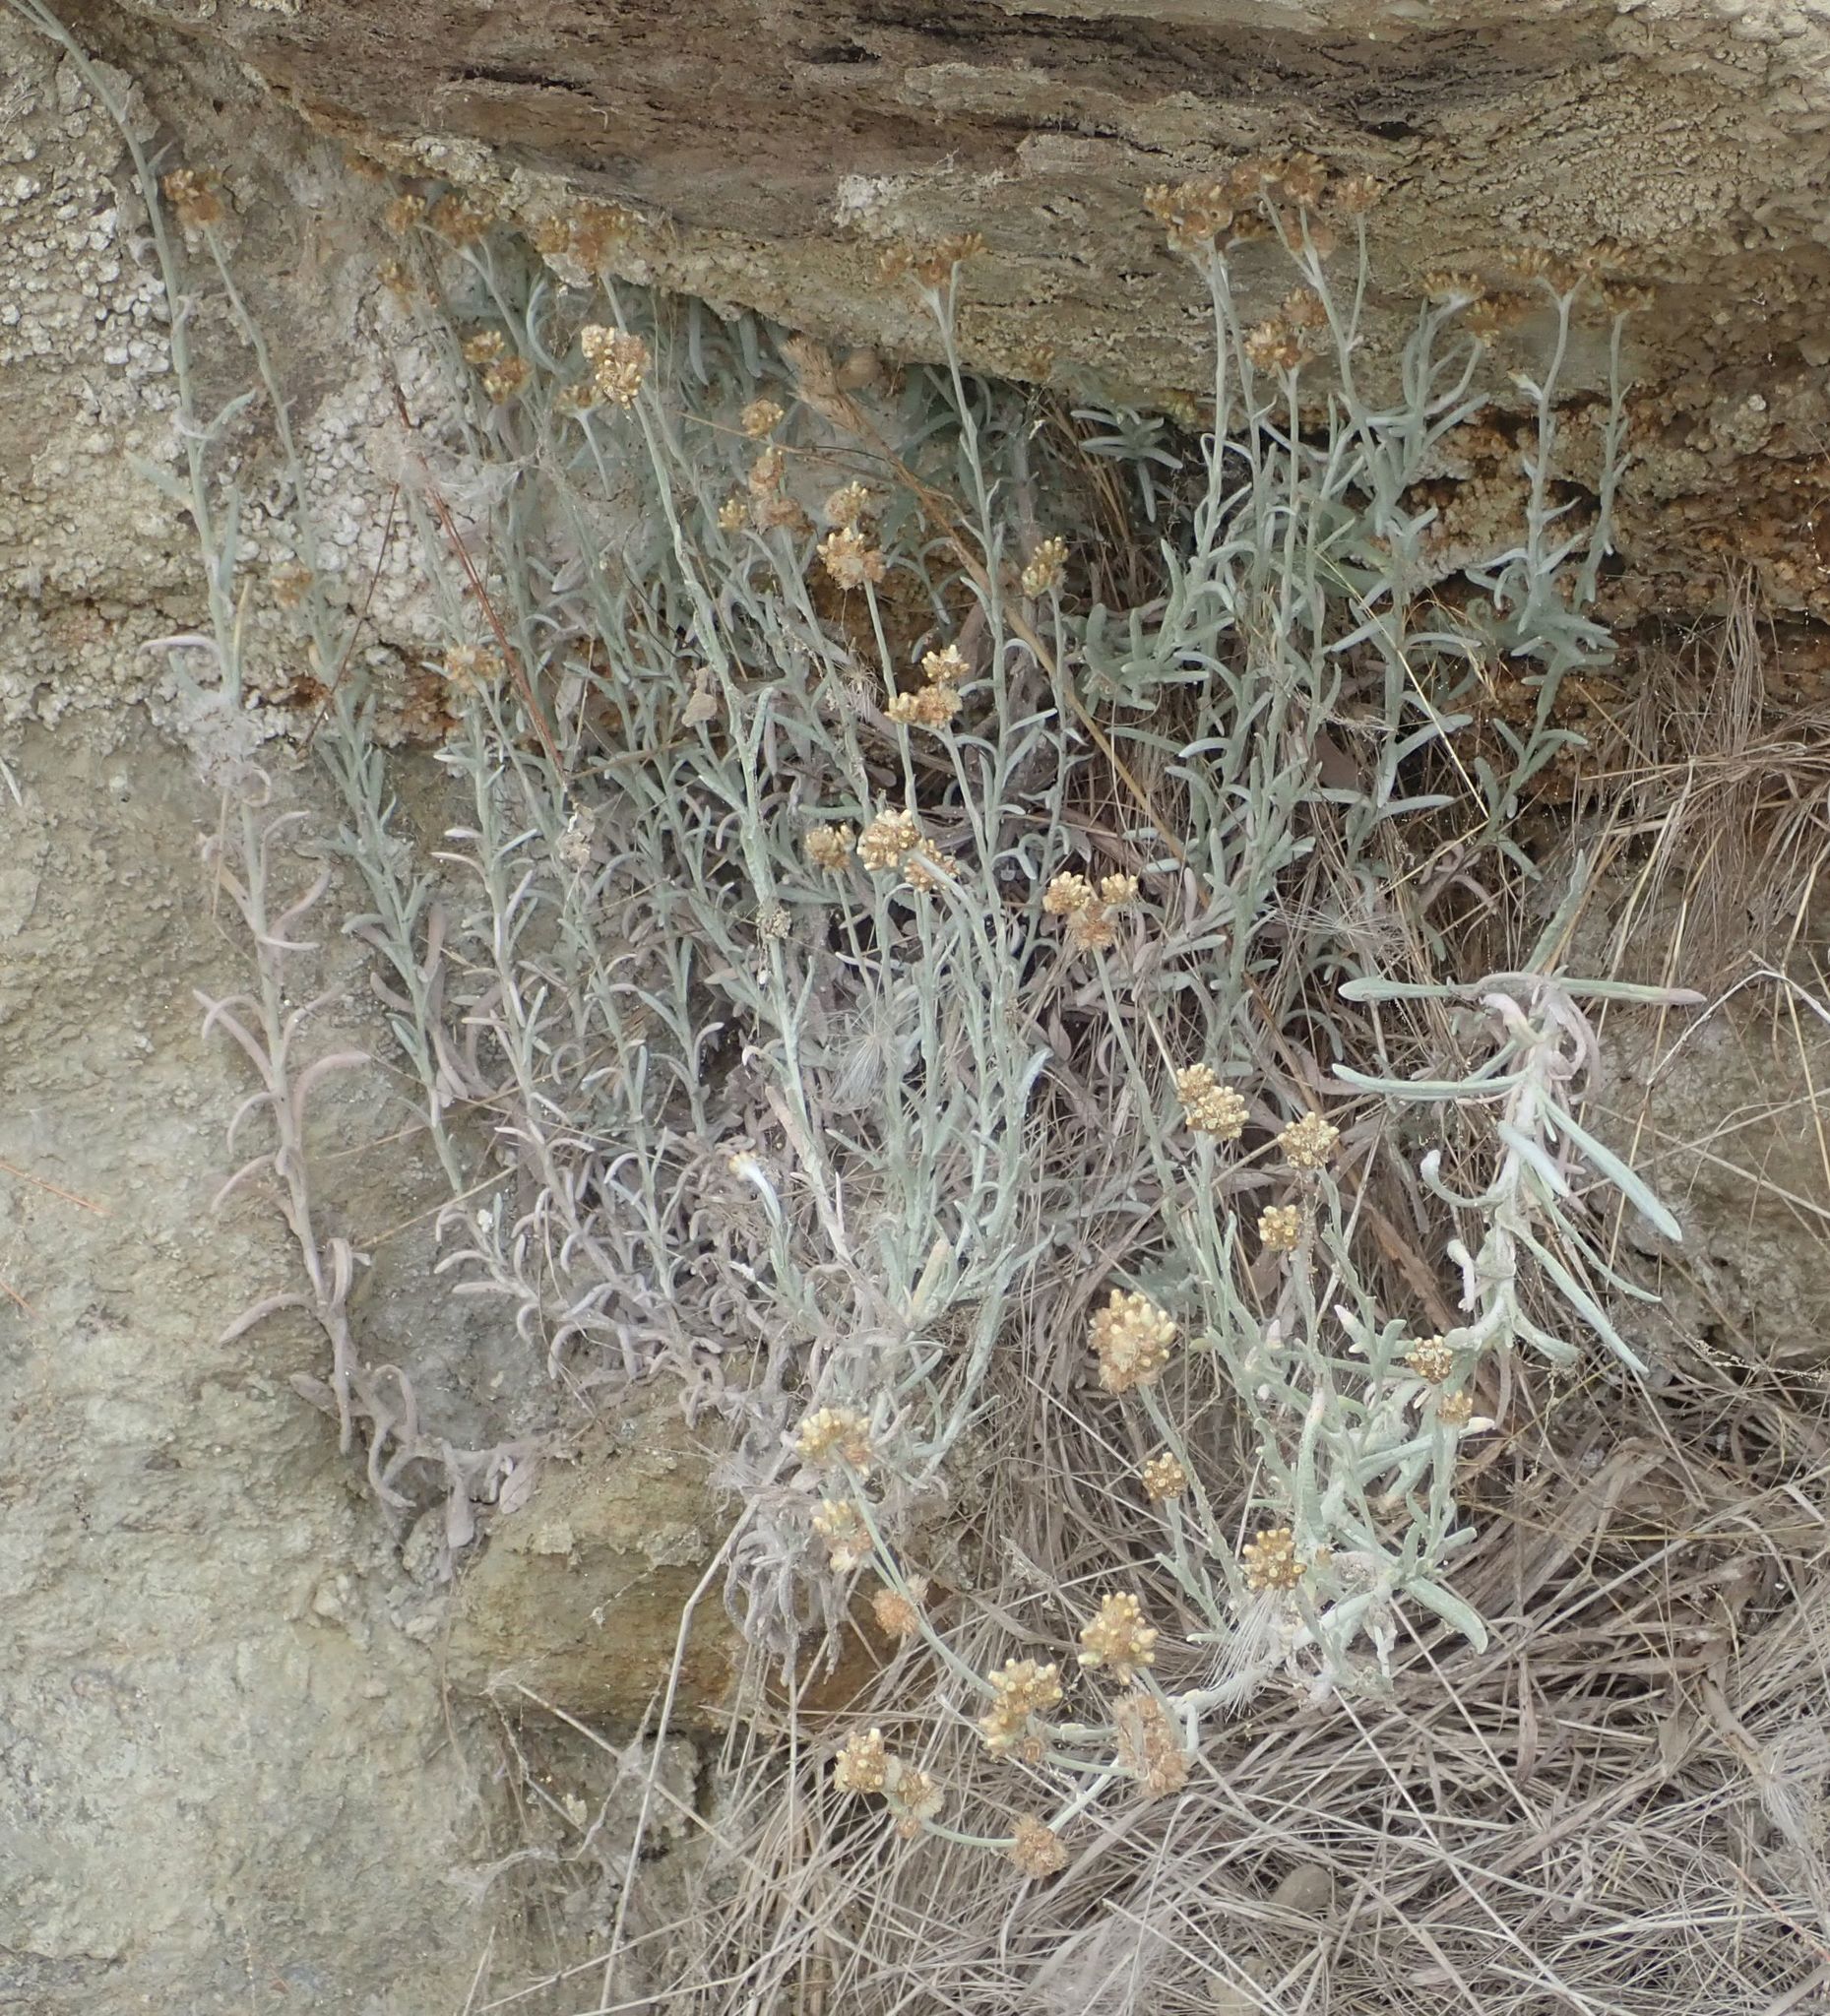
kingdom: Plantae
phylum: Tracheophyta
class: Magnoliopsida
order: Asterales
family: Asteraceae
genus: Helichrysum
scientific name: Helichrysum luteoalbum
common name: Daisy
